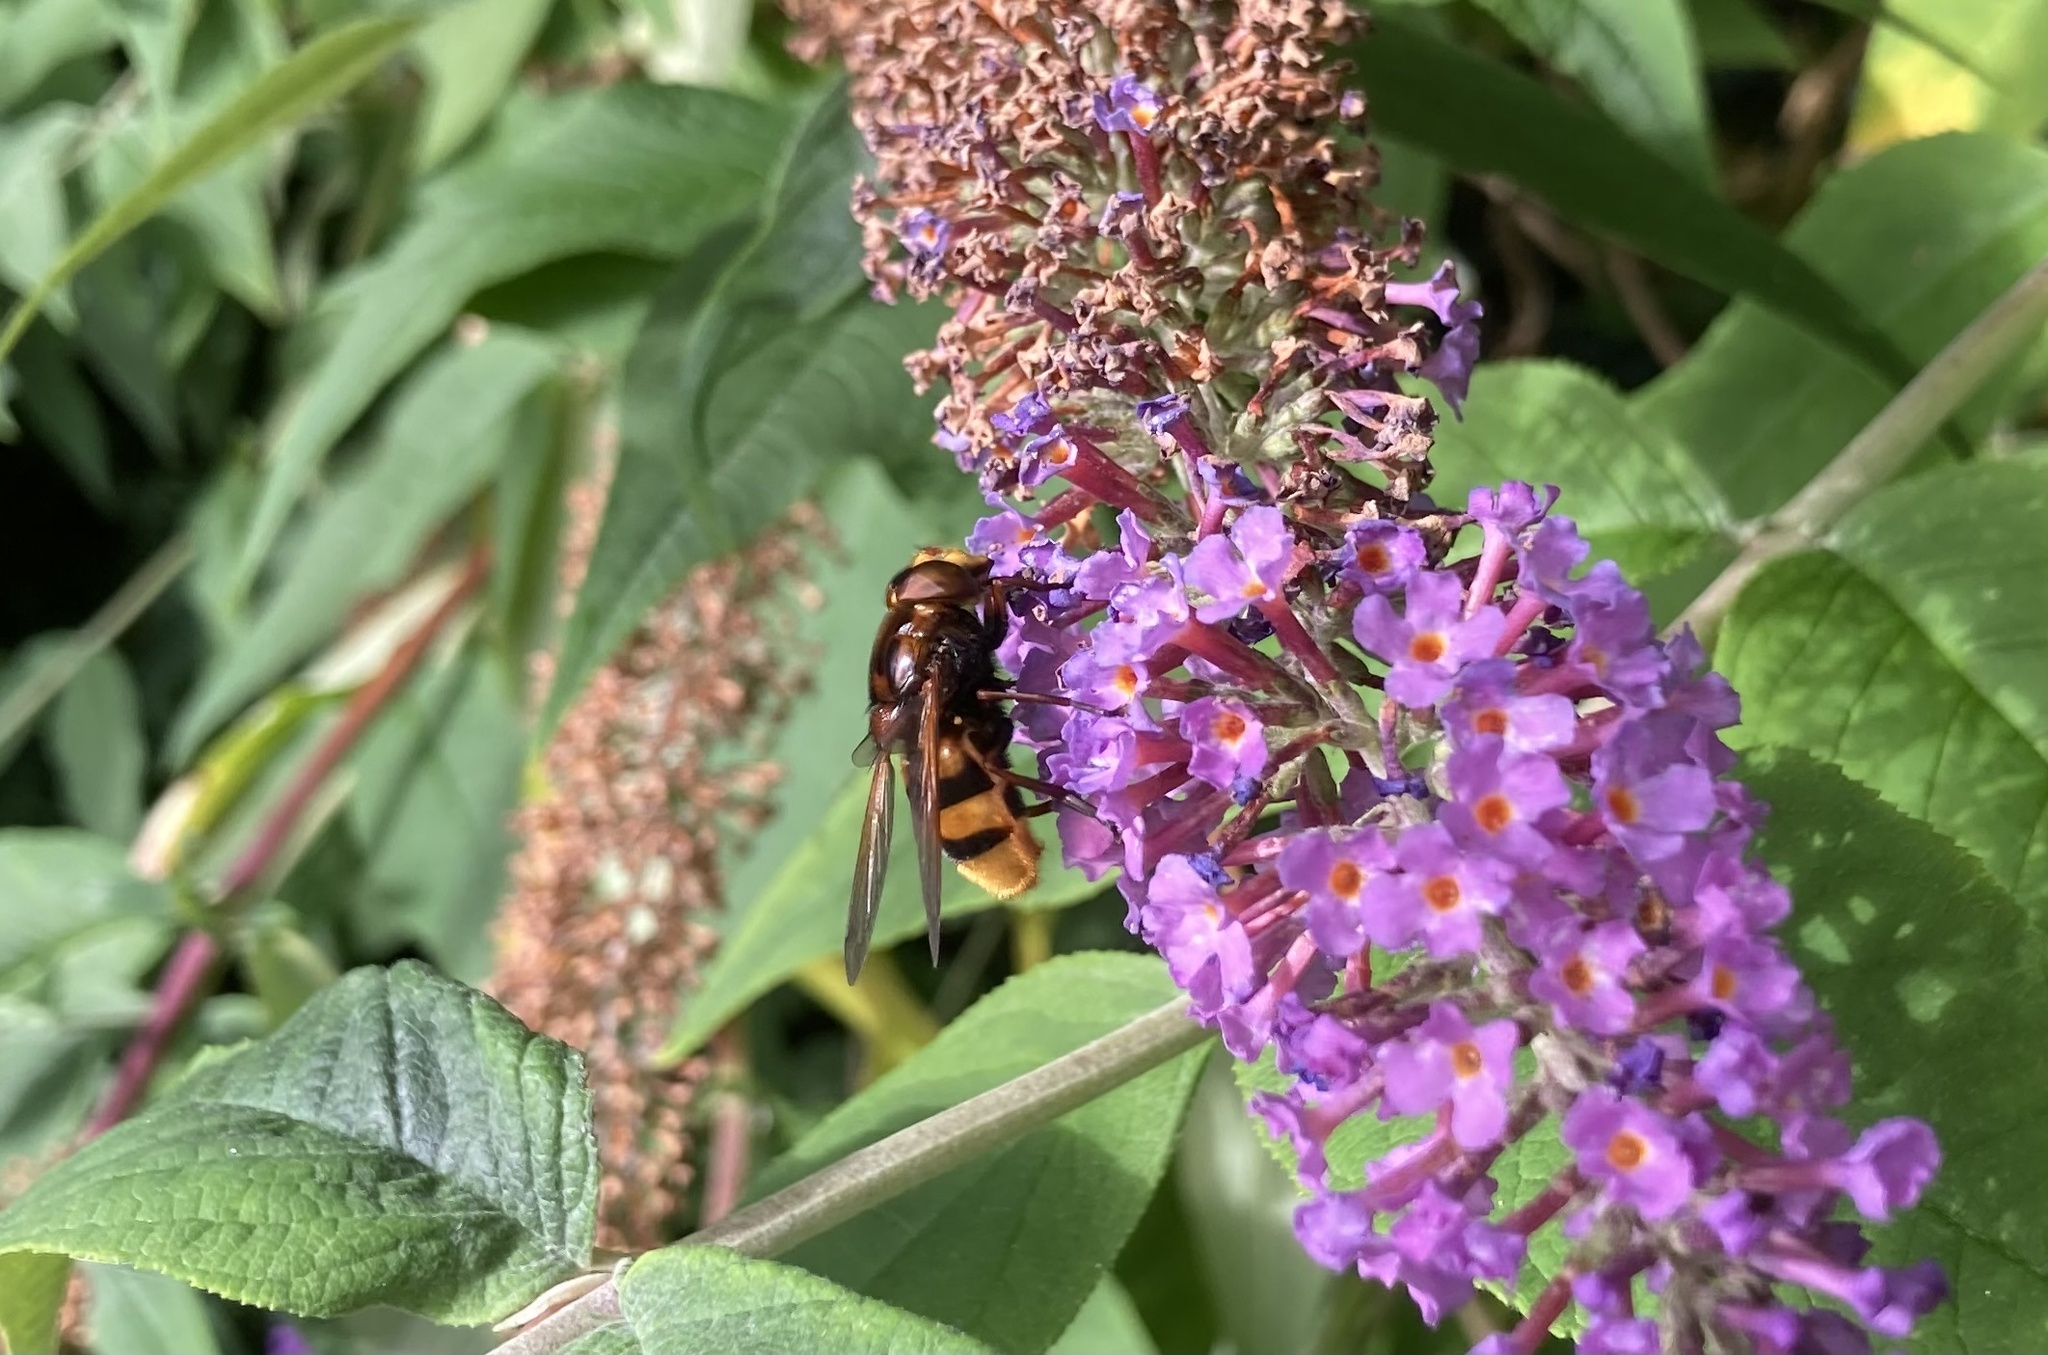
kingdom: Animalia
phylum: Arthropoda
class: Insecta
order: Diptera
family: Syrphidae
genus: Volucella
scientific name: Volucella zonaria
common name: Hornet hoverfly
